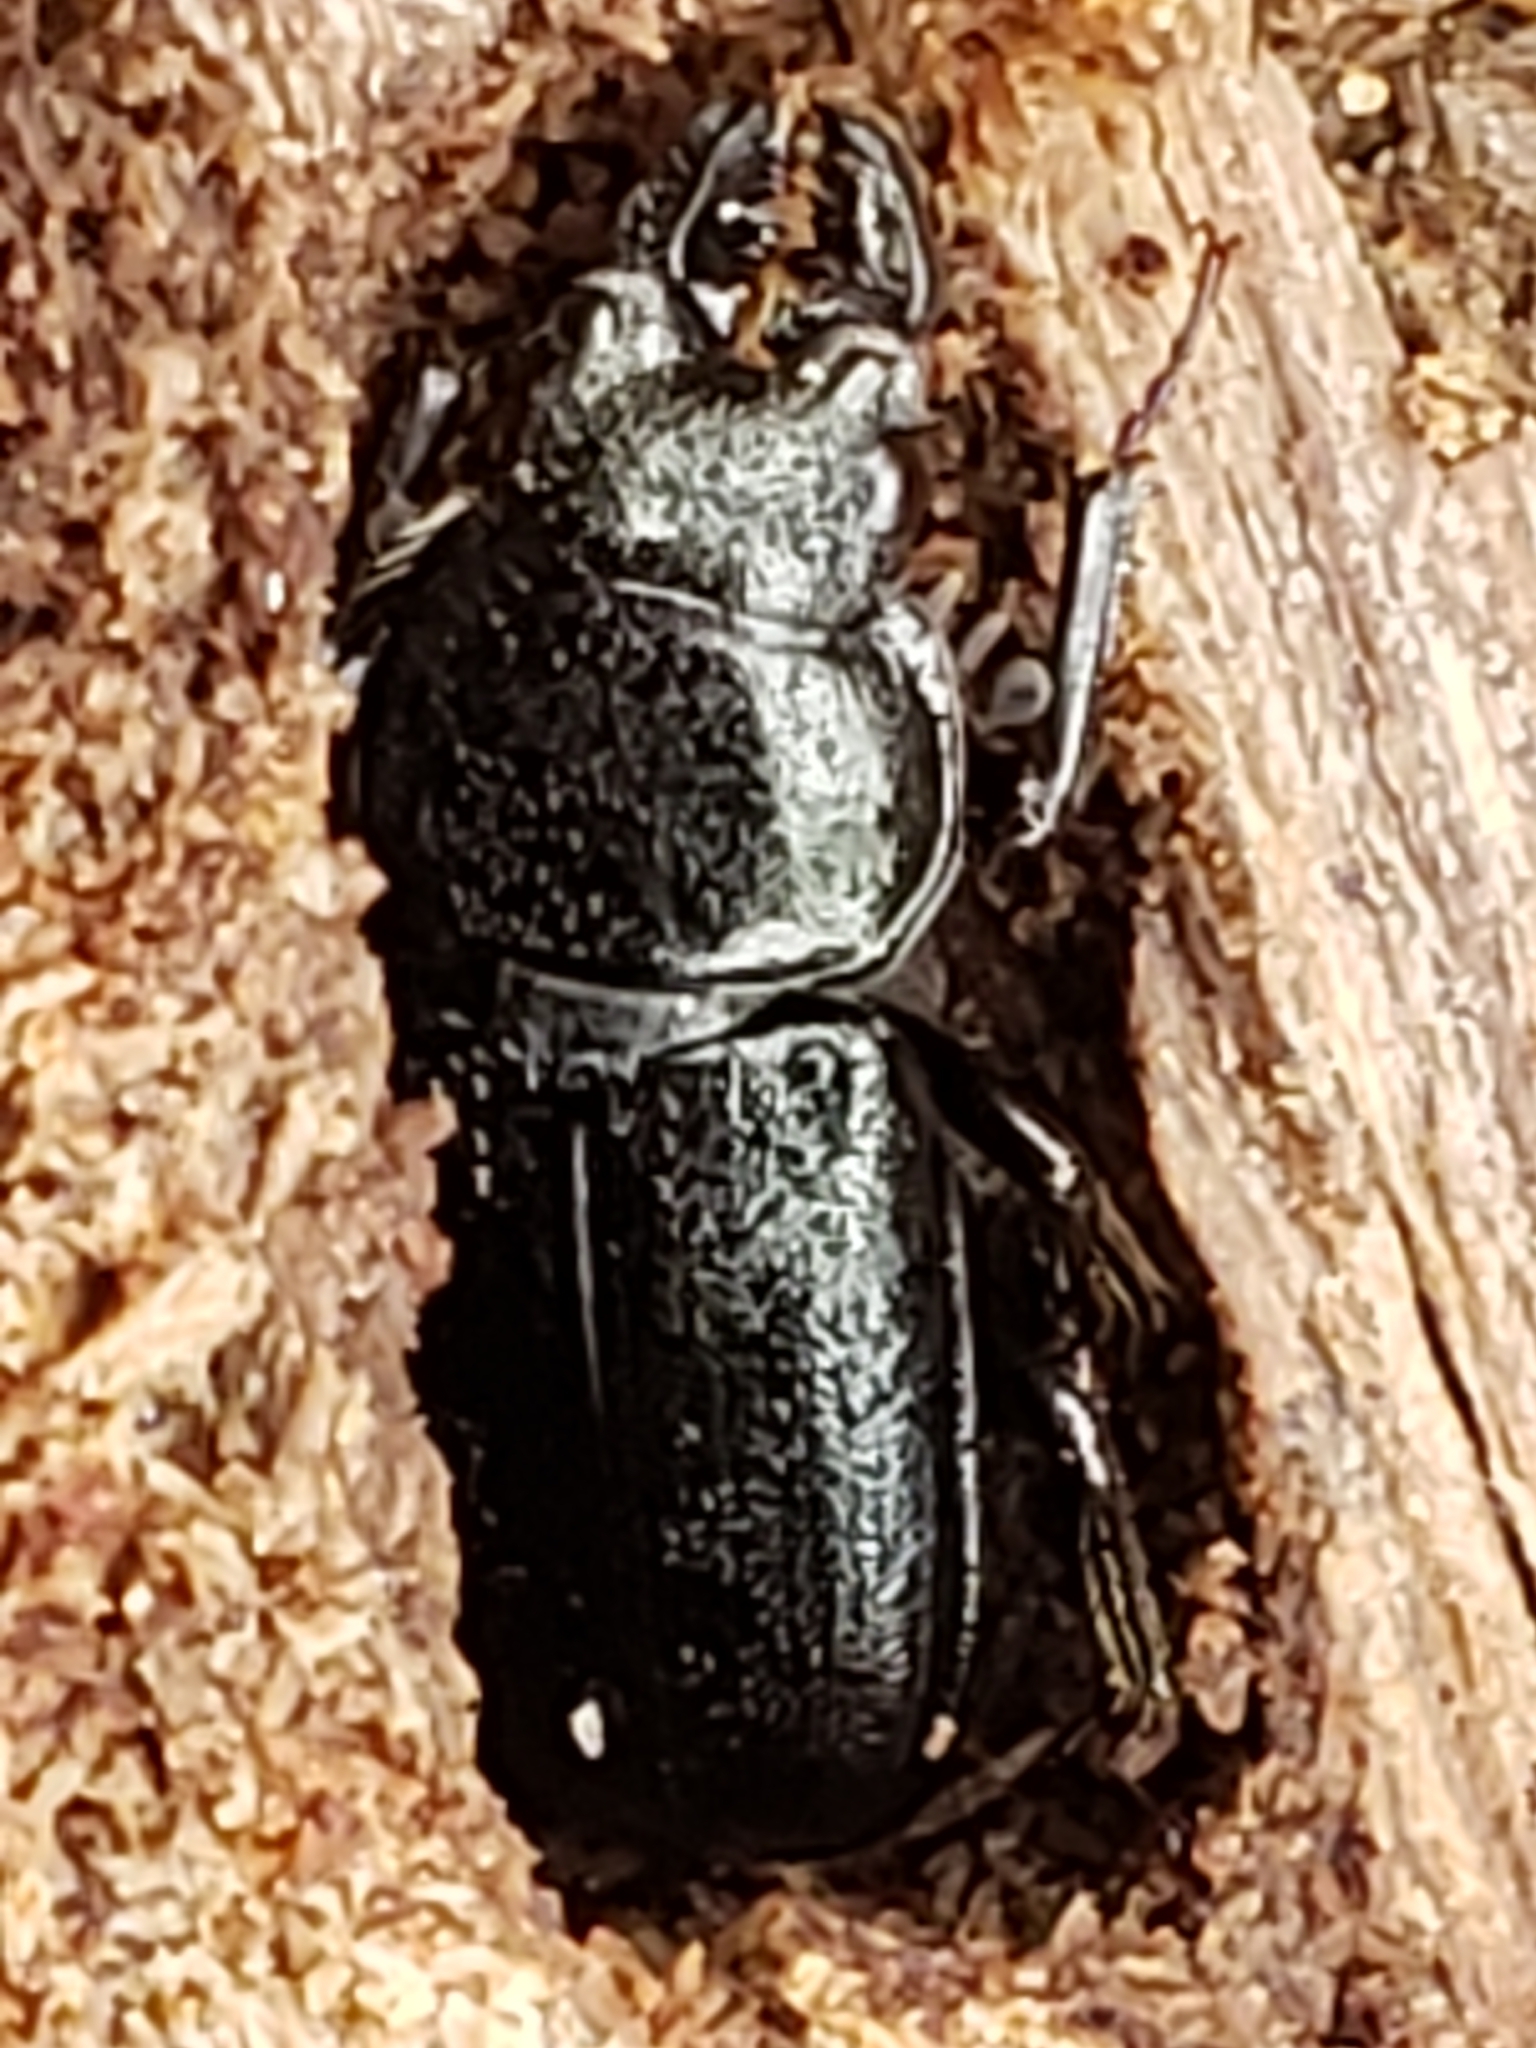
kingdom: Animalia
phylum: Arthropoda
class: Insecta
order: Coleoptera
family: Lucanidae
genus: Platycerus
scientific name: Platycerus quercus
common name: Oak stag beetle
